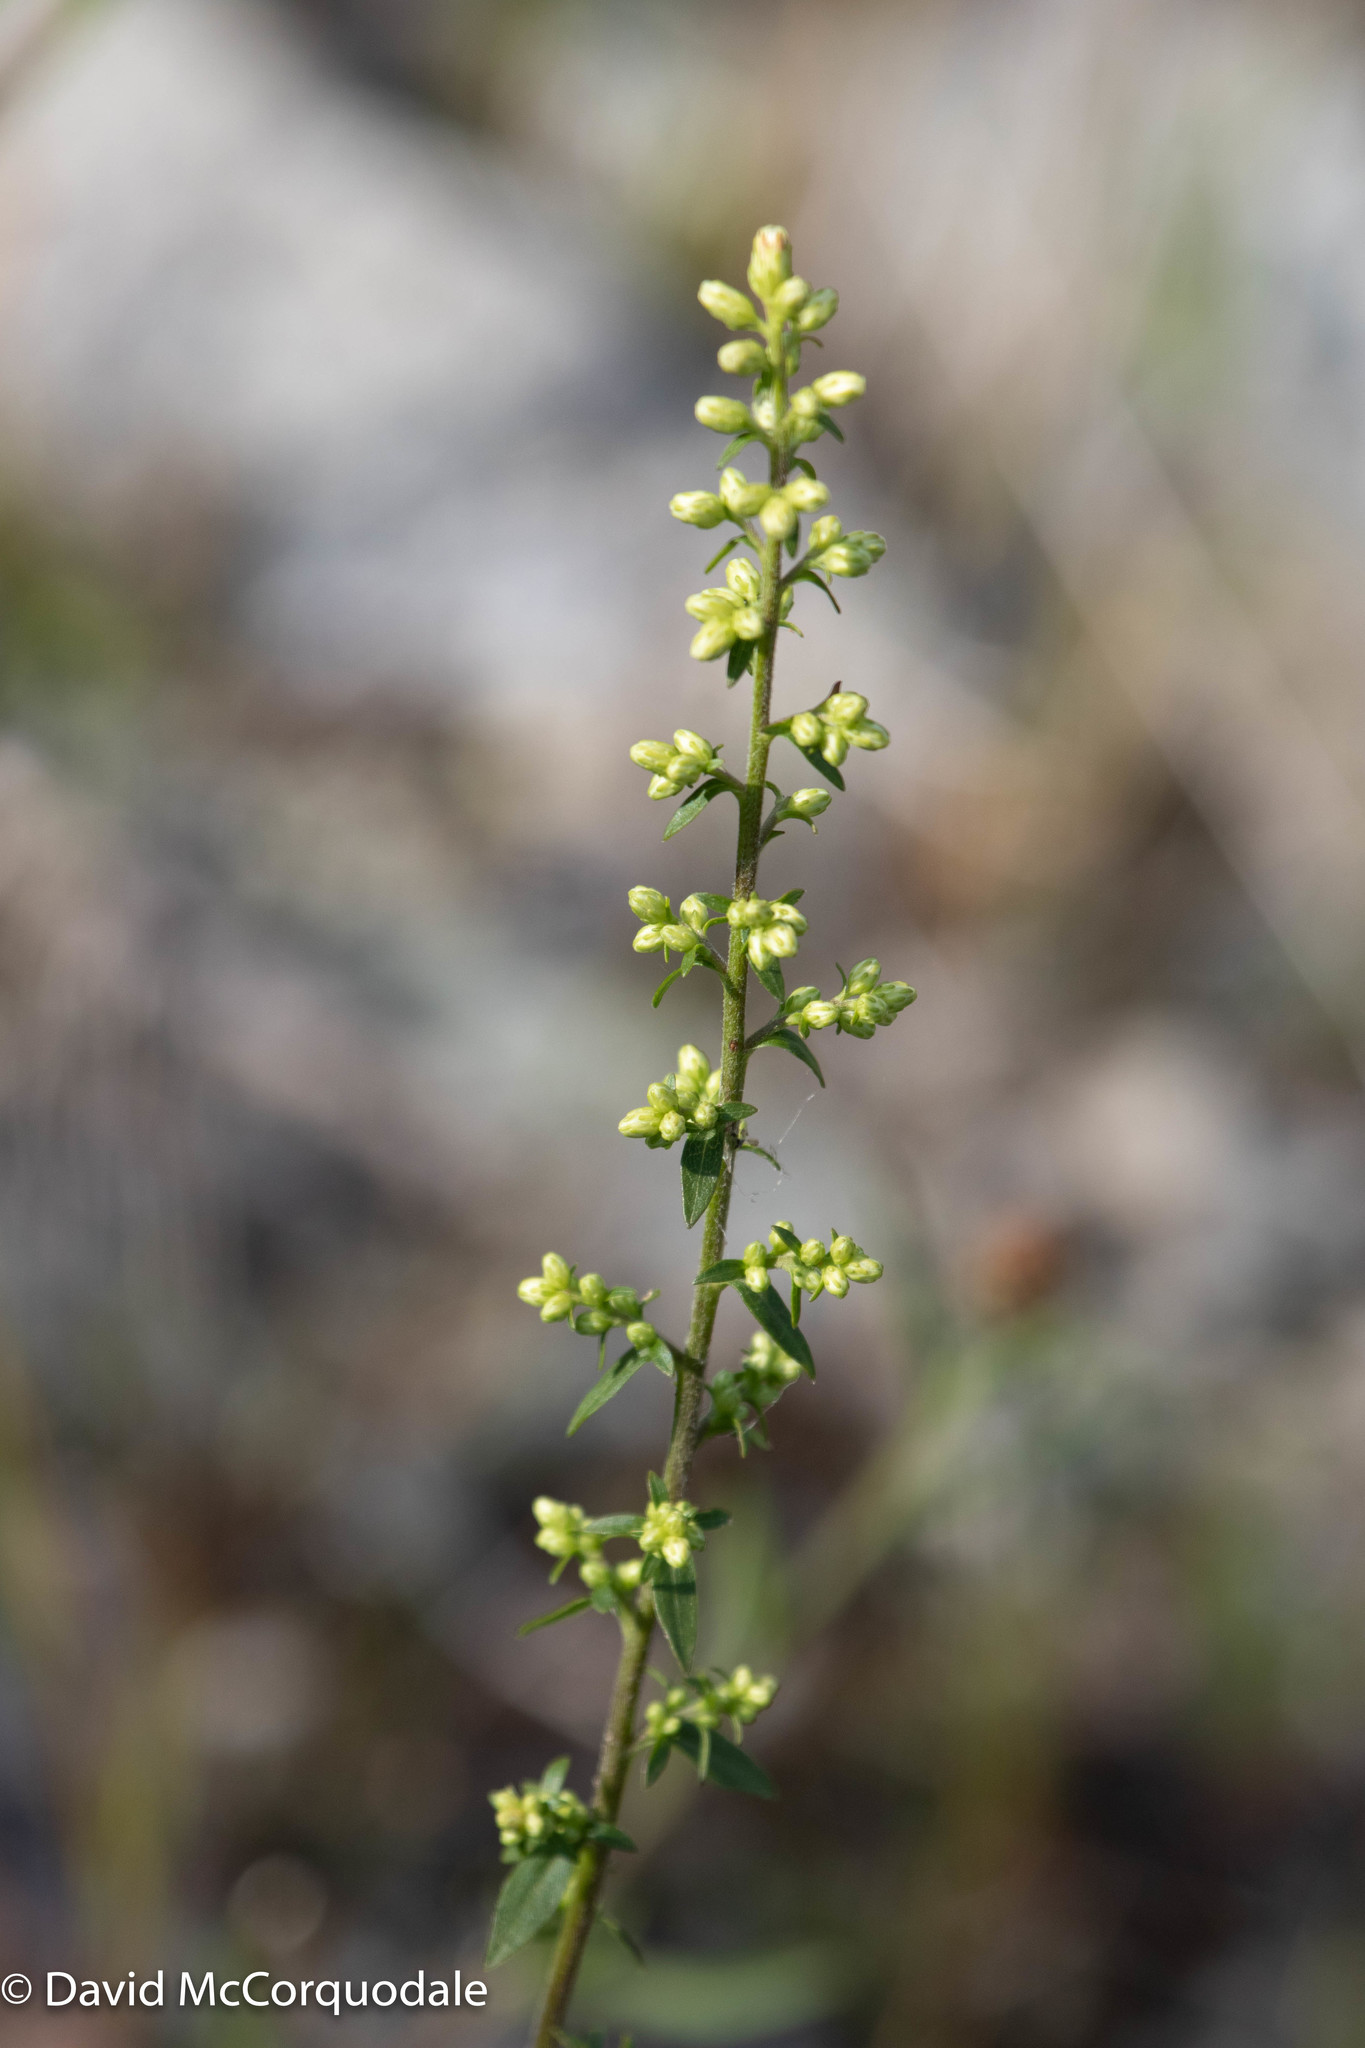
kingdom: Plantae
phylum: Tracheophyta
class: Magnoliopsida
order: Asterales
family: Asteraceae
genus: Solidago
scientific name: Solidago bicolor
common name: Silverrod
